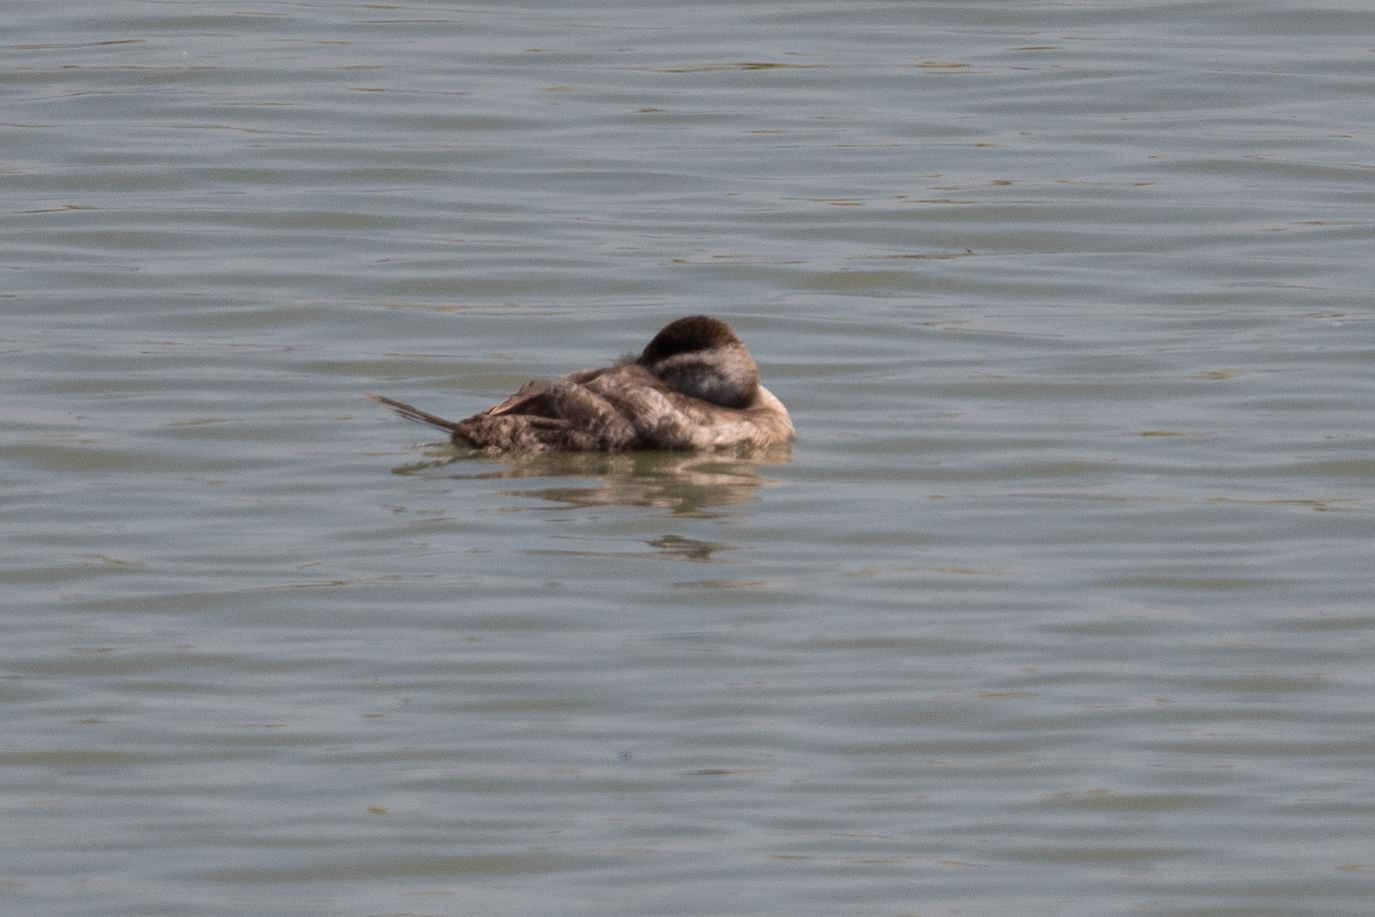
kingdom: Animalia
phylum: Chordata
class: Aves
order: Anseriformes
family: Anatidae
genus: Oxyura
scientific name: Oxyura jamaicensis
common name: Ruddy duck
